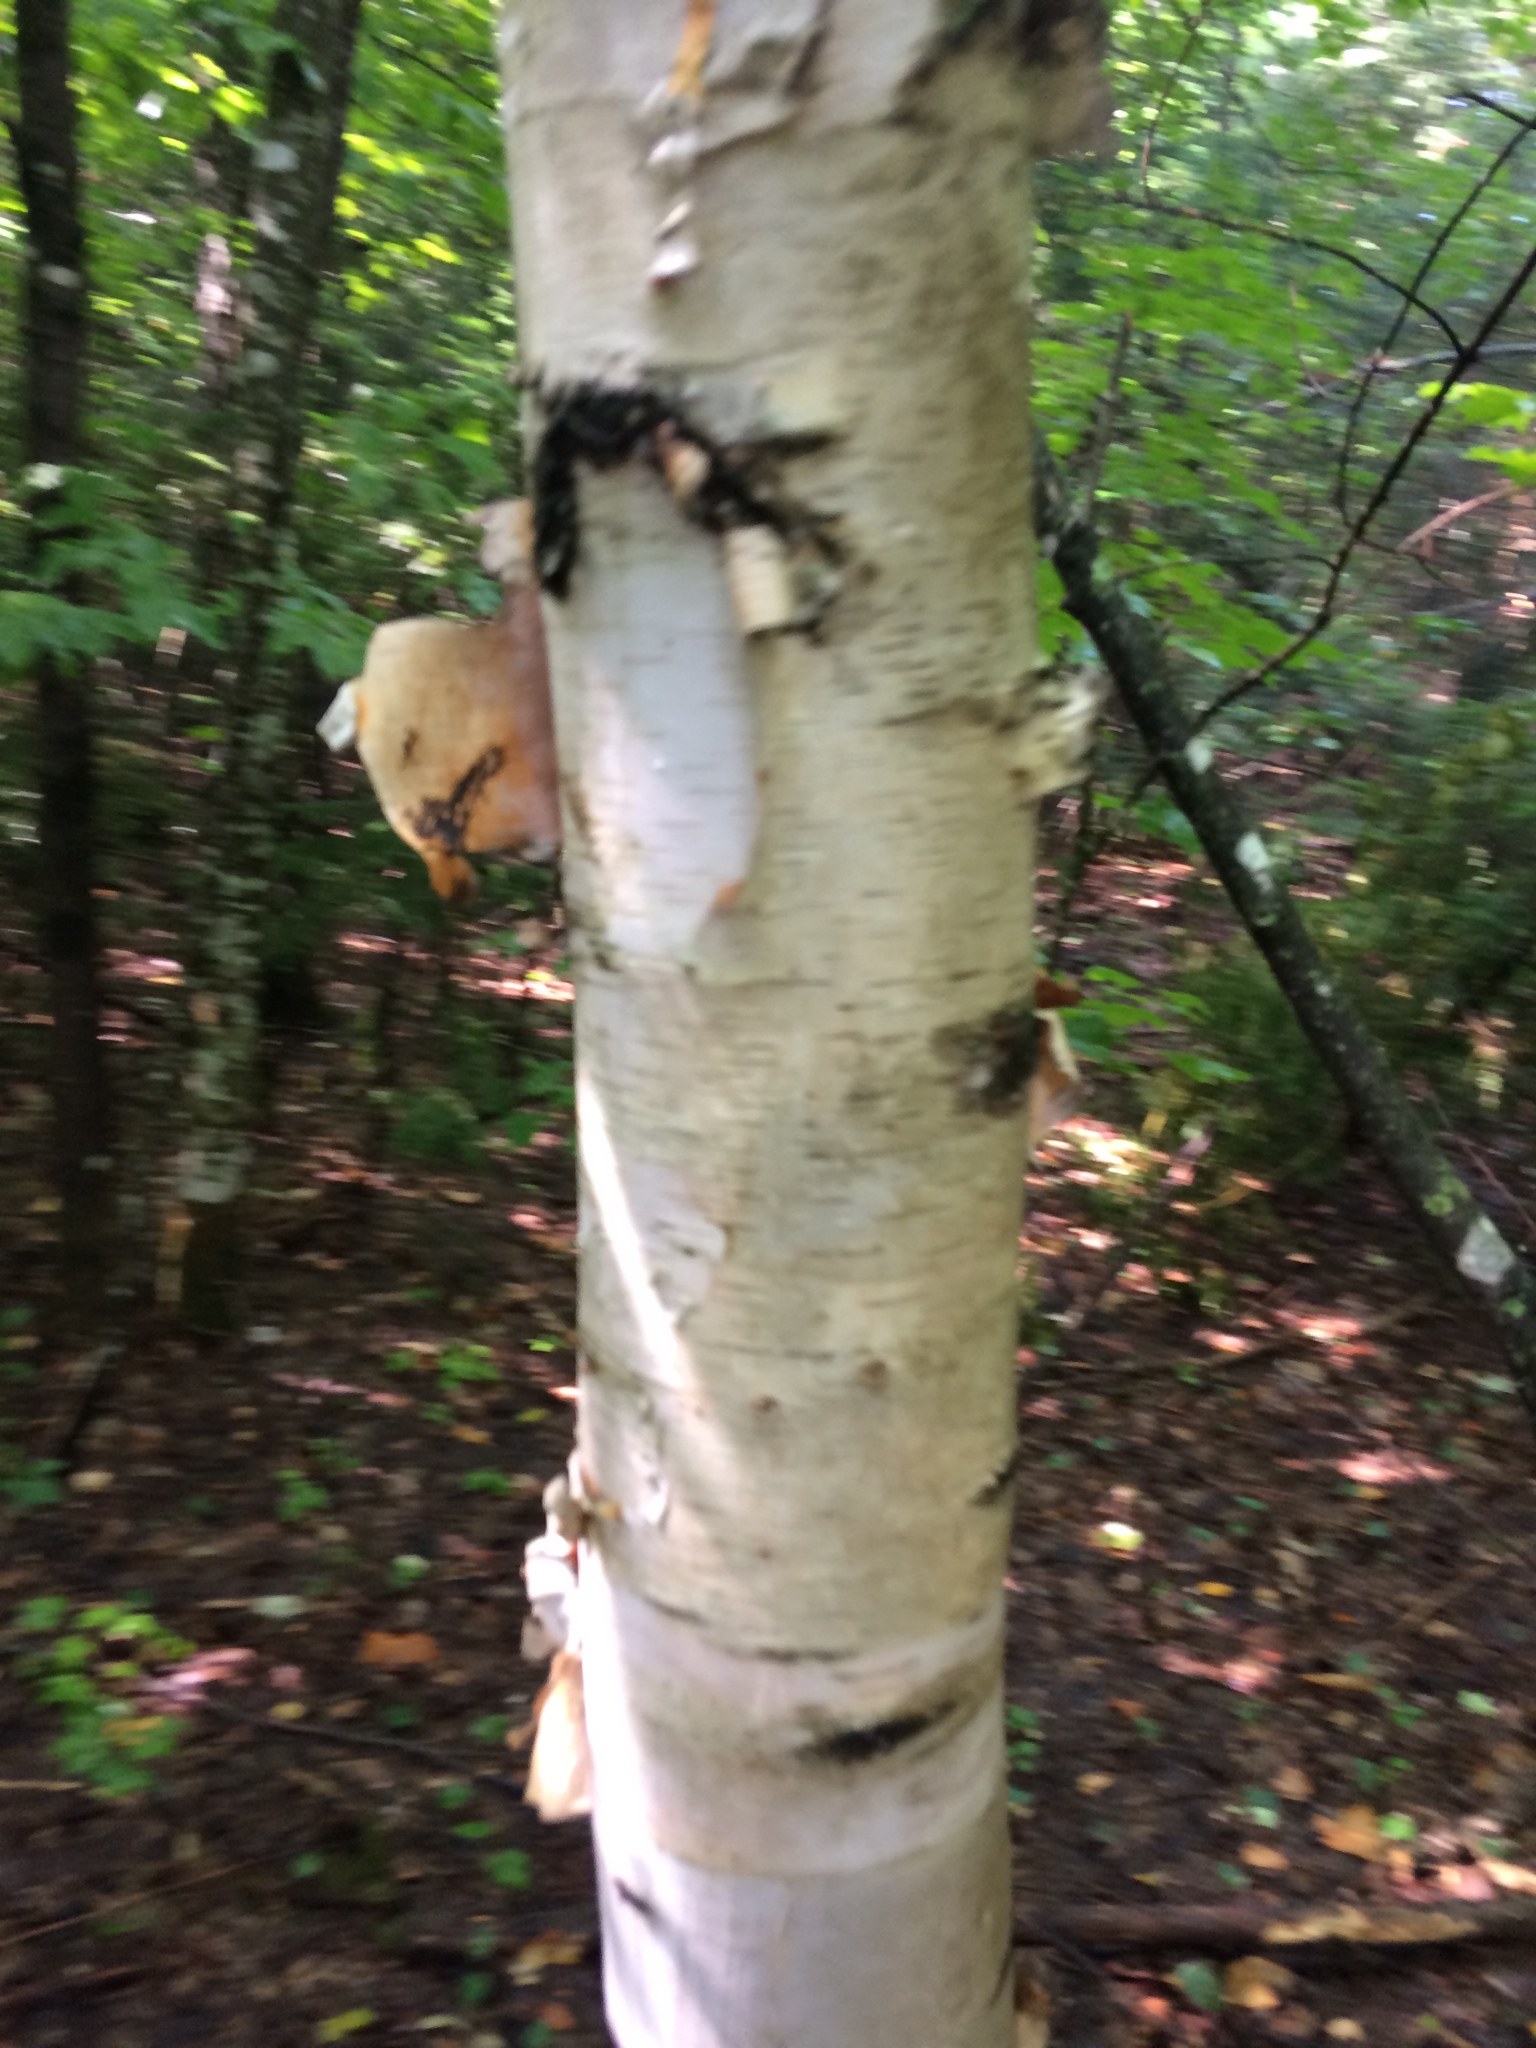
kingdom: Plantae
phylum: Tracheophyta
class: Magnoliopsida
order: Fagales
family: Betulaceae
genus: Betula
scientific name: Betula papyrifera
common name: Paper birch
